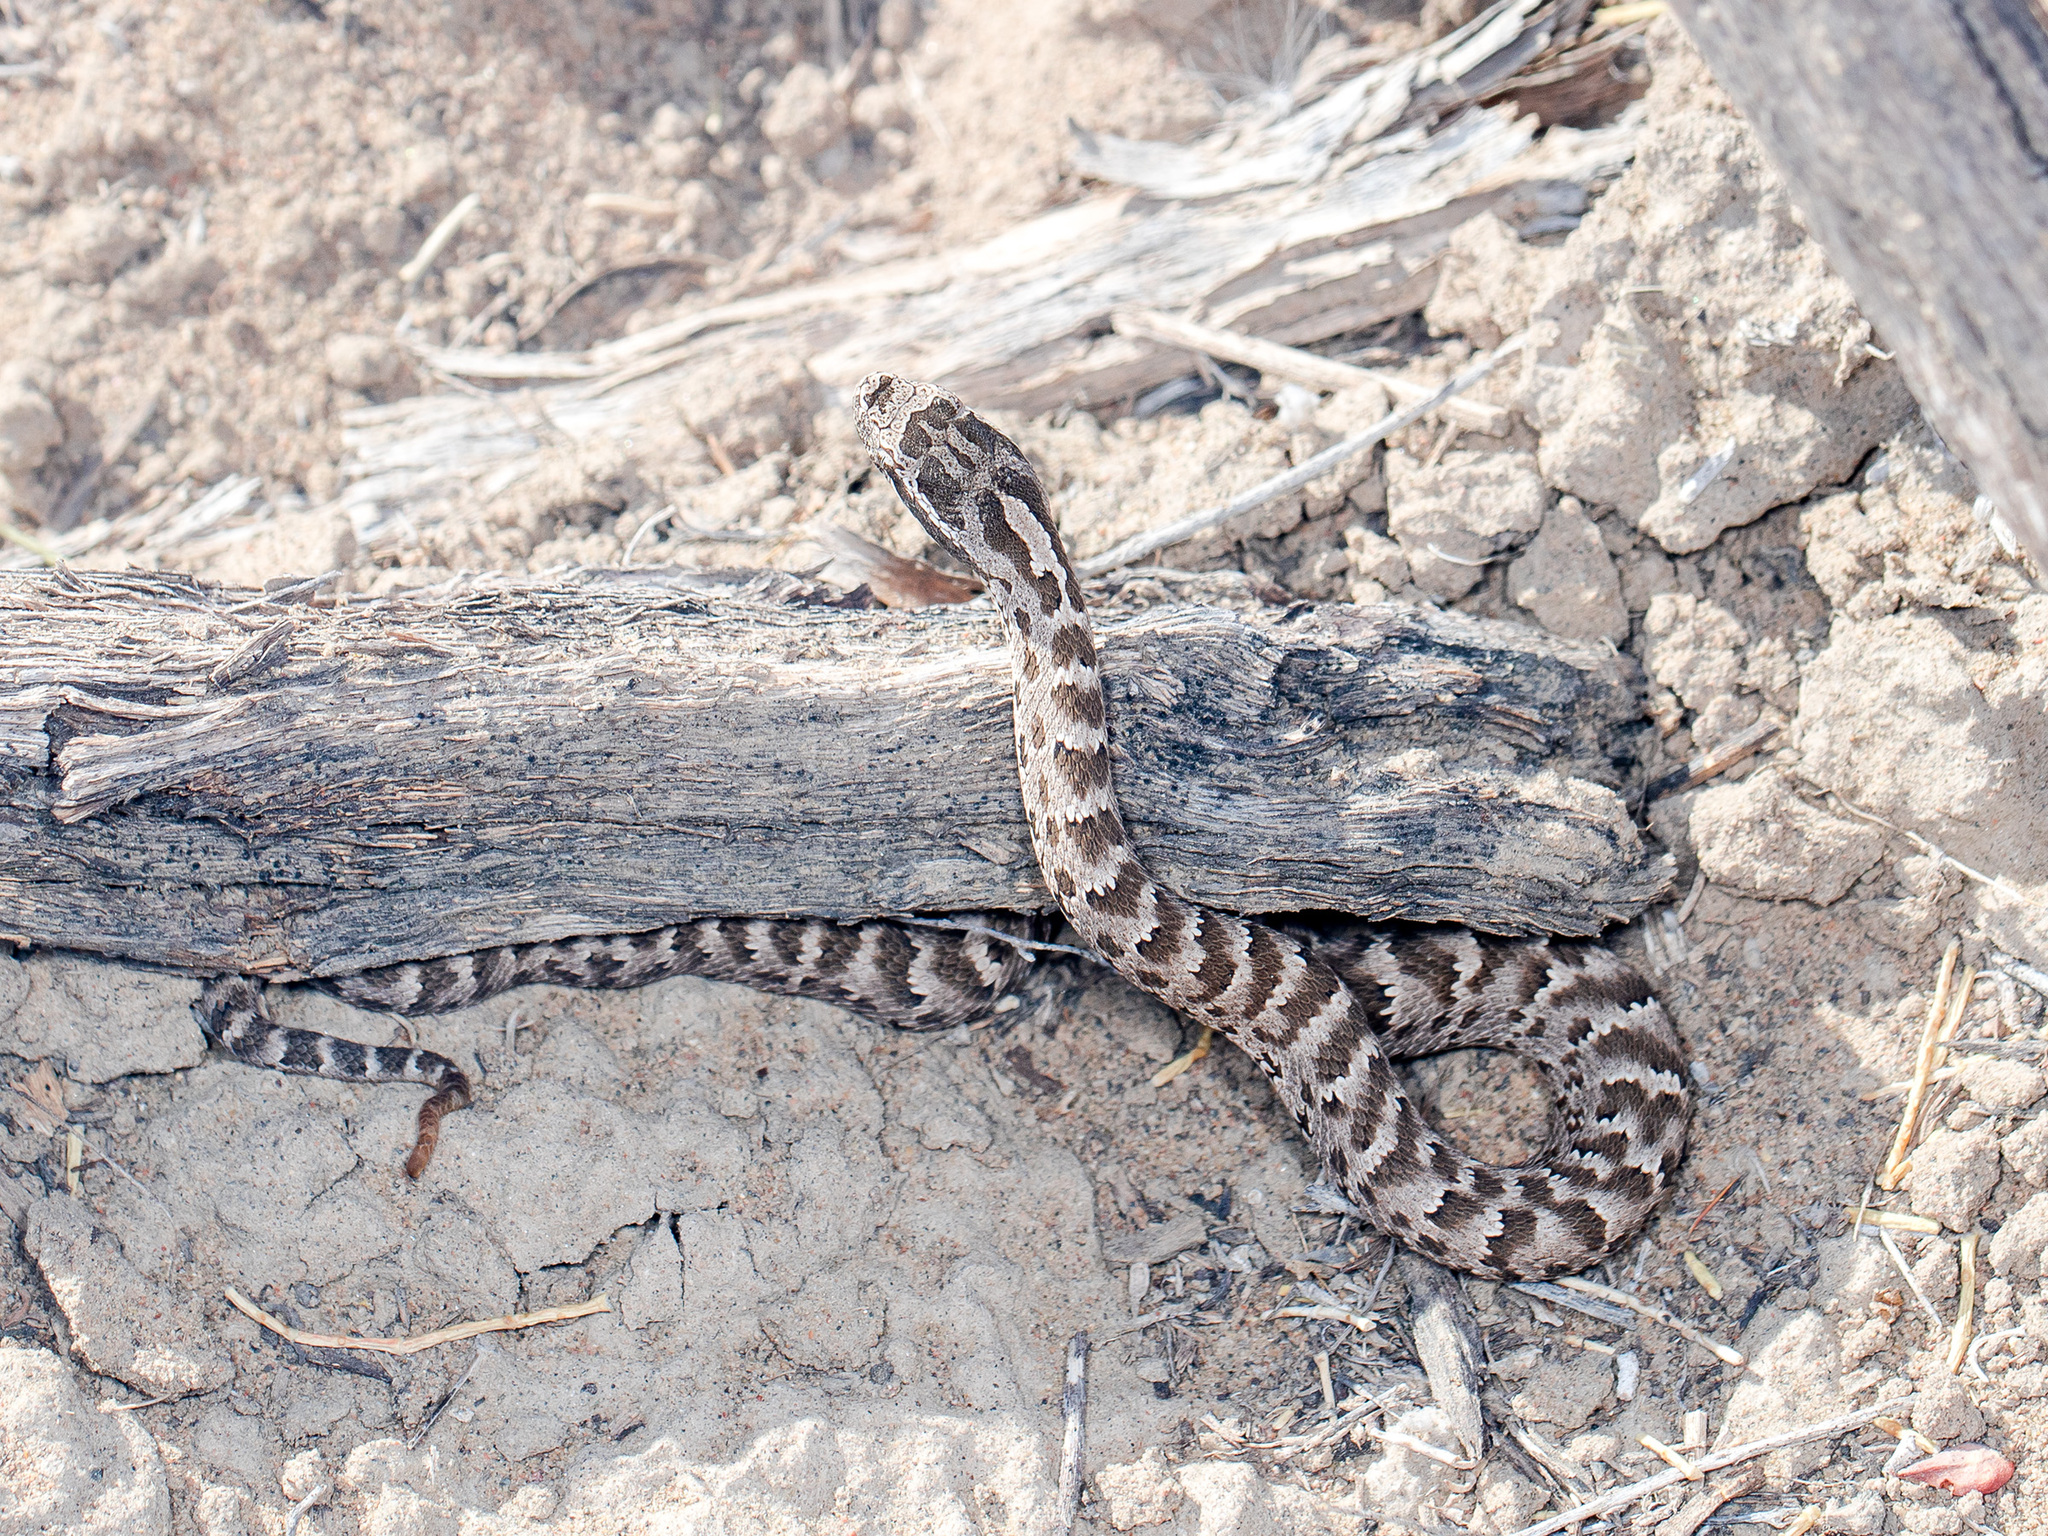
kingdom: Animalia
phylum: Chordata
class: Squamata
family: Viperidae
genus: Gloydius
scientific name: Gloydius halys
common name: Halys pit viper
